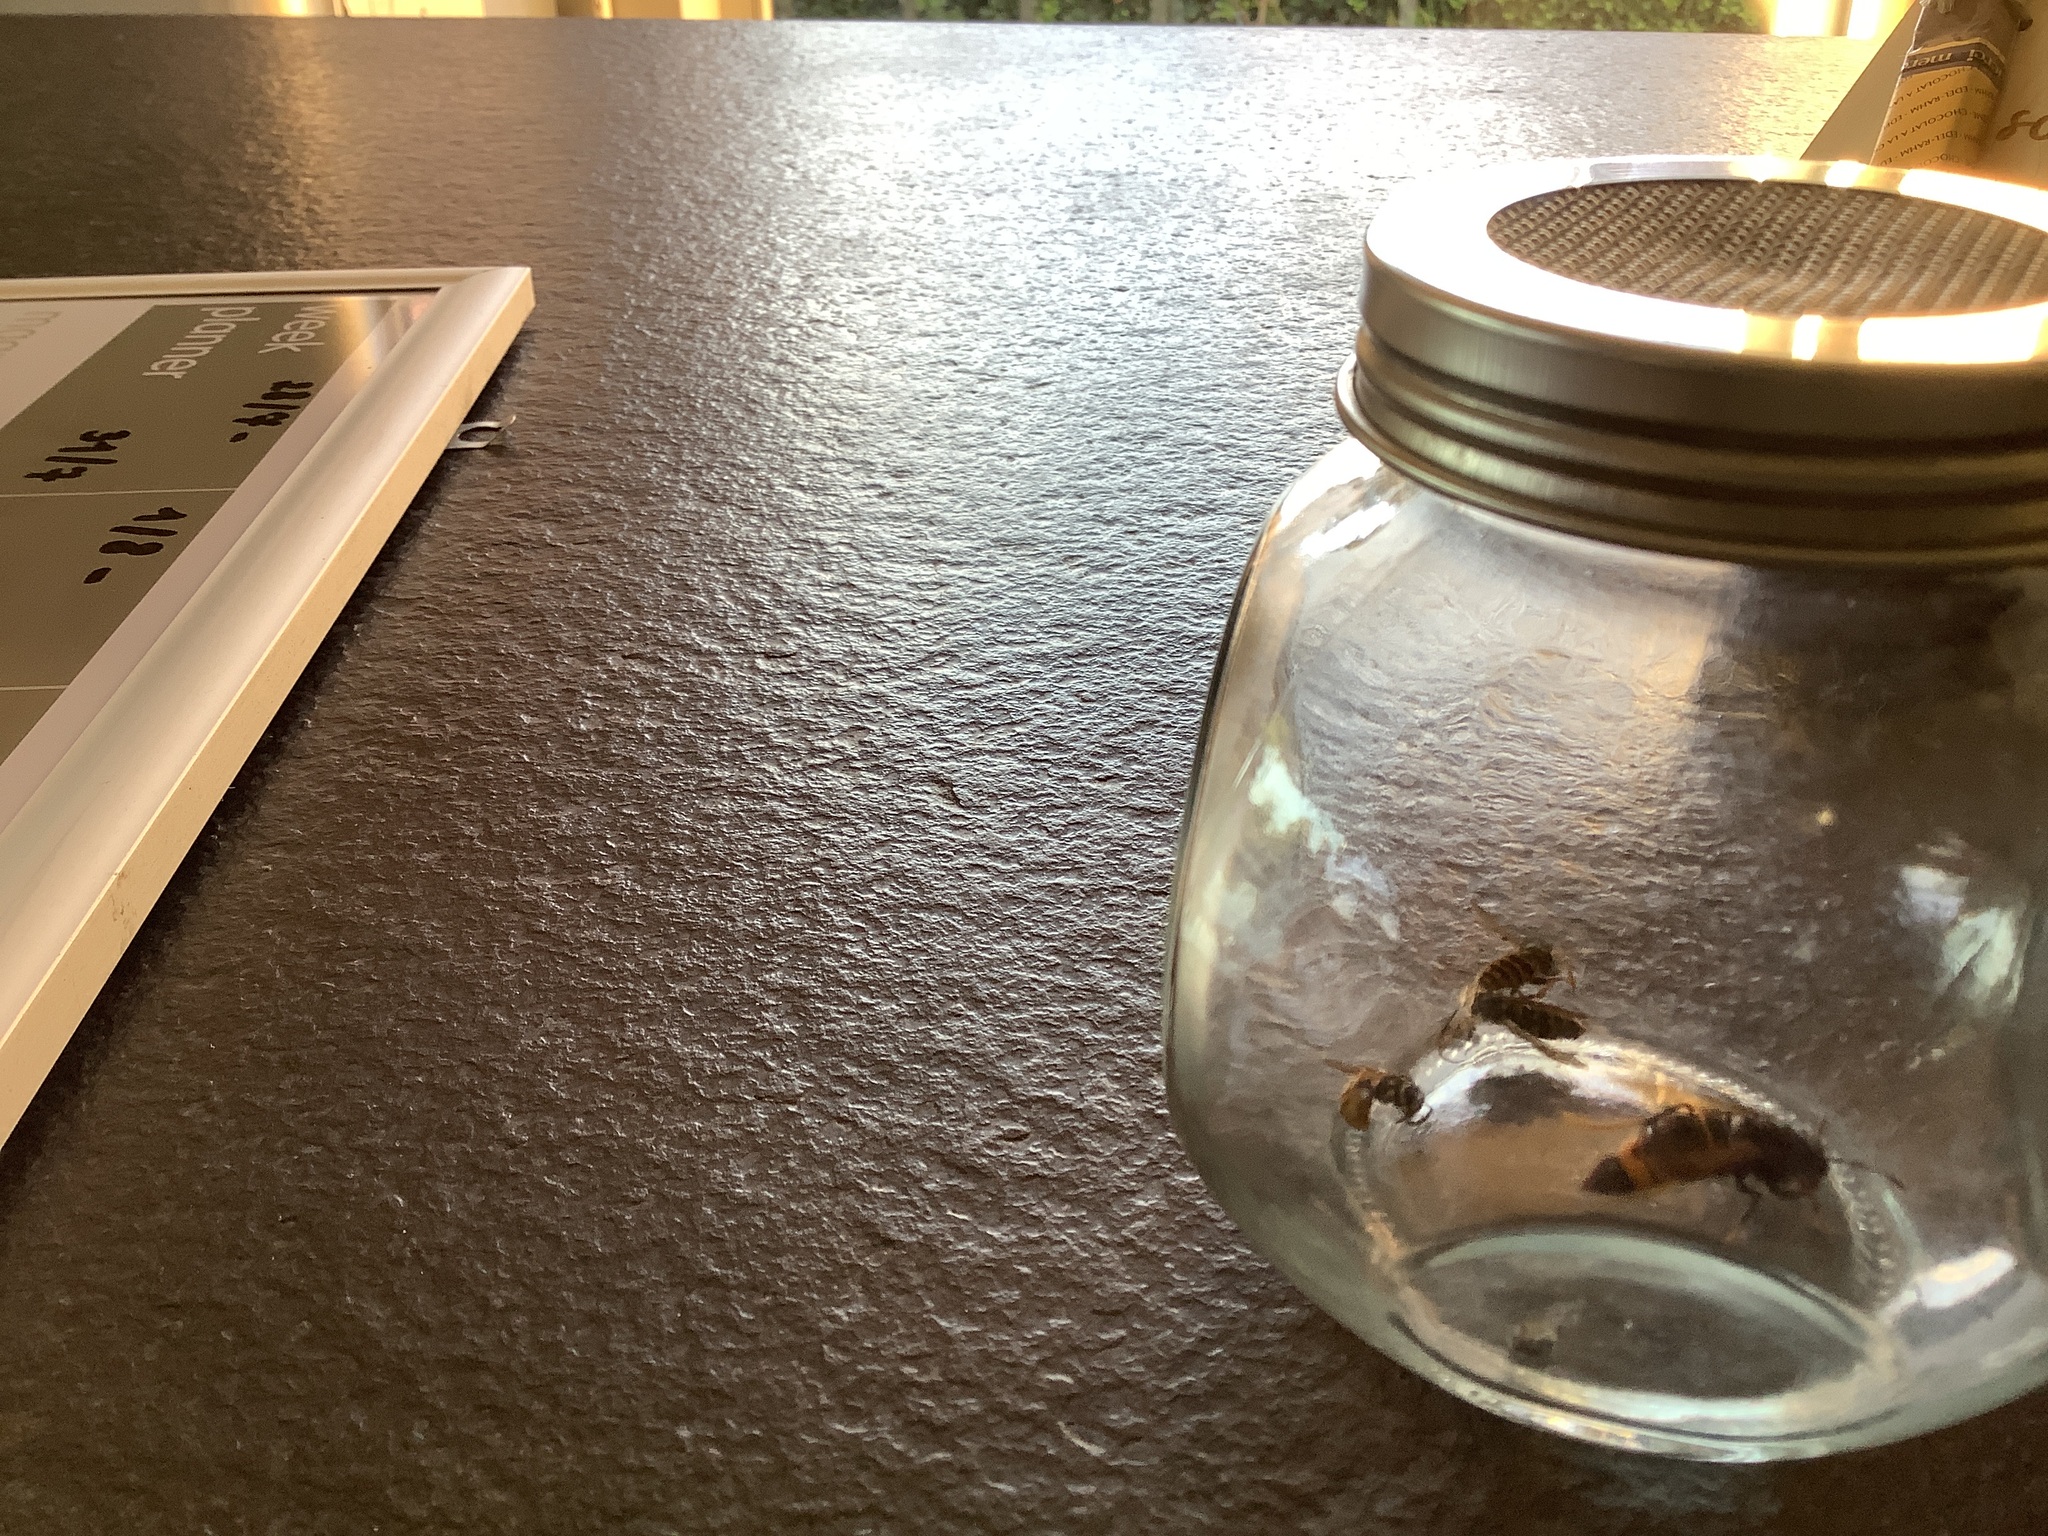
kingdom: Animalia
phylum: Arthropoda
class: Insecta
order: Hymenoptera
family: Vespidae
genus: Vespa
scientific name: Vespa velutina
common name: Asian hornet
